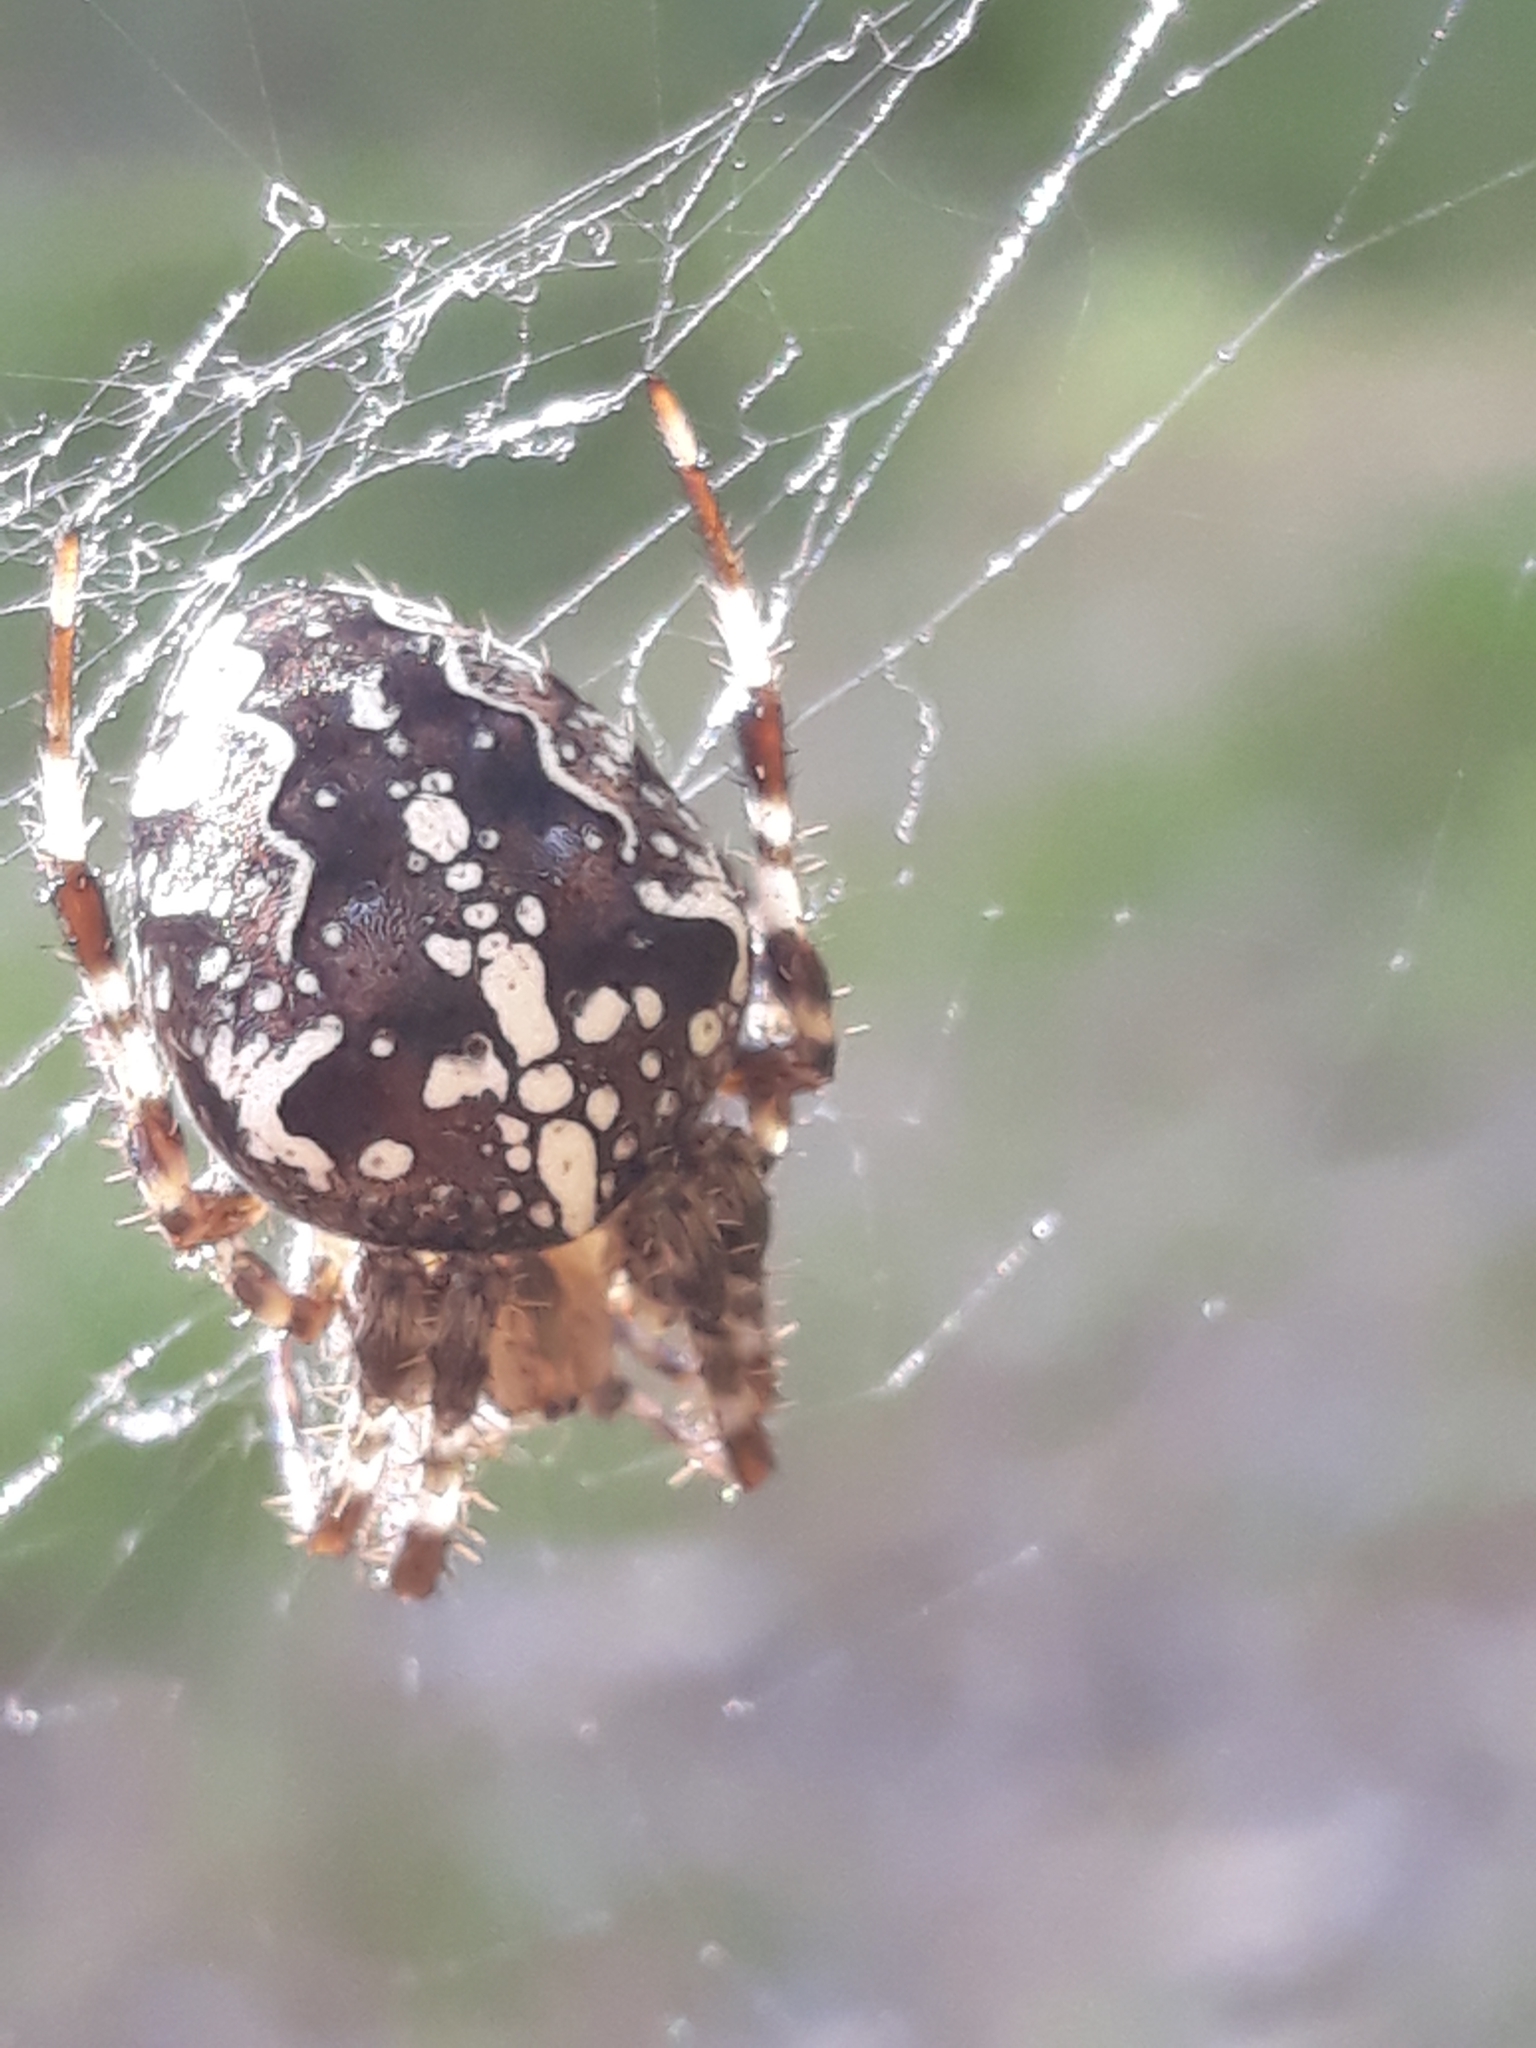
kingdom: Animalia
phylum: Arthropoda
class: Arachnida
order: Araneae
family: Araneidae
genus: Araneus
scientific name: Araneus diadematus
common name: Cross orbweaver
